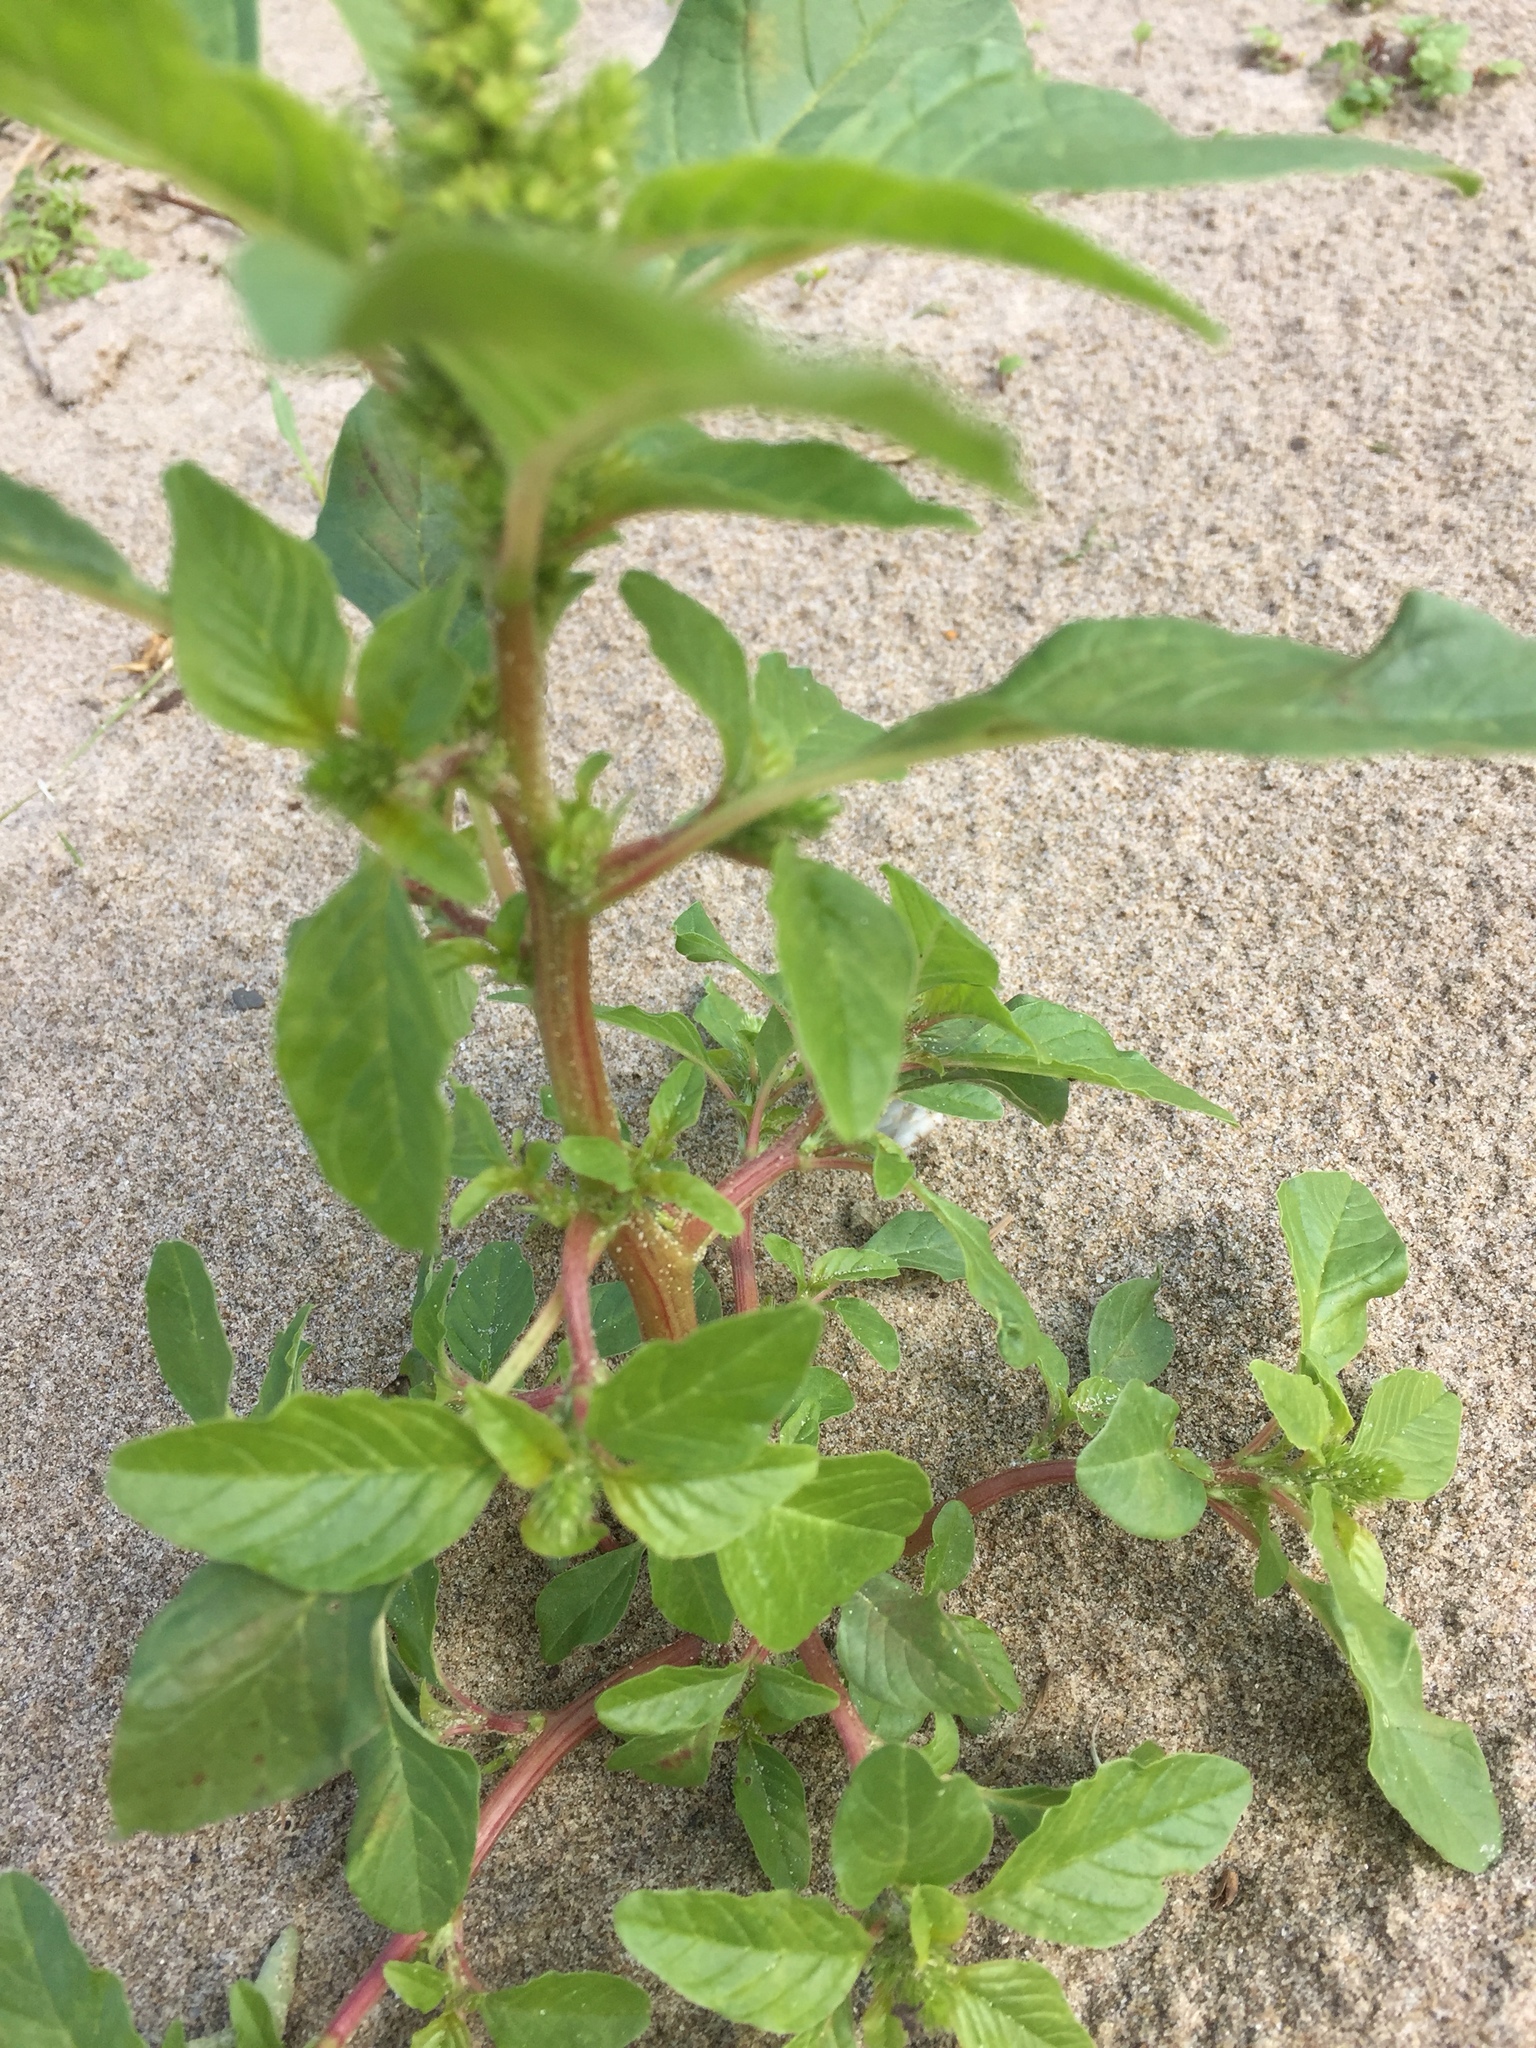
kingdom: Plantae
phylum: Tracheophyta
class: Magnoliopsida
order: Caryophyllales
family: Amaranthaceae
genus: Amaranthus
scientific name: Amaranthus hybridus
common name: Green amaranth
